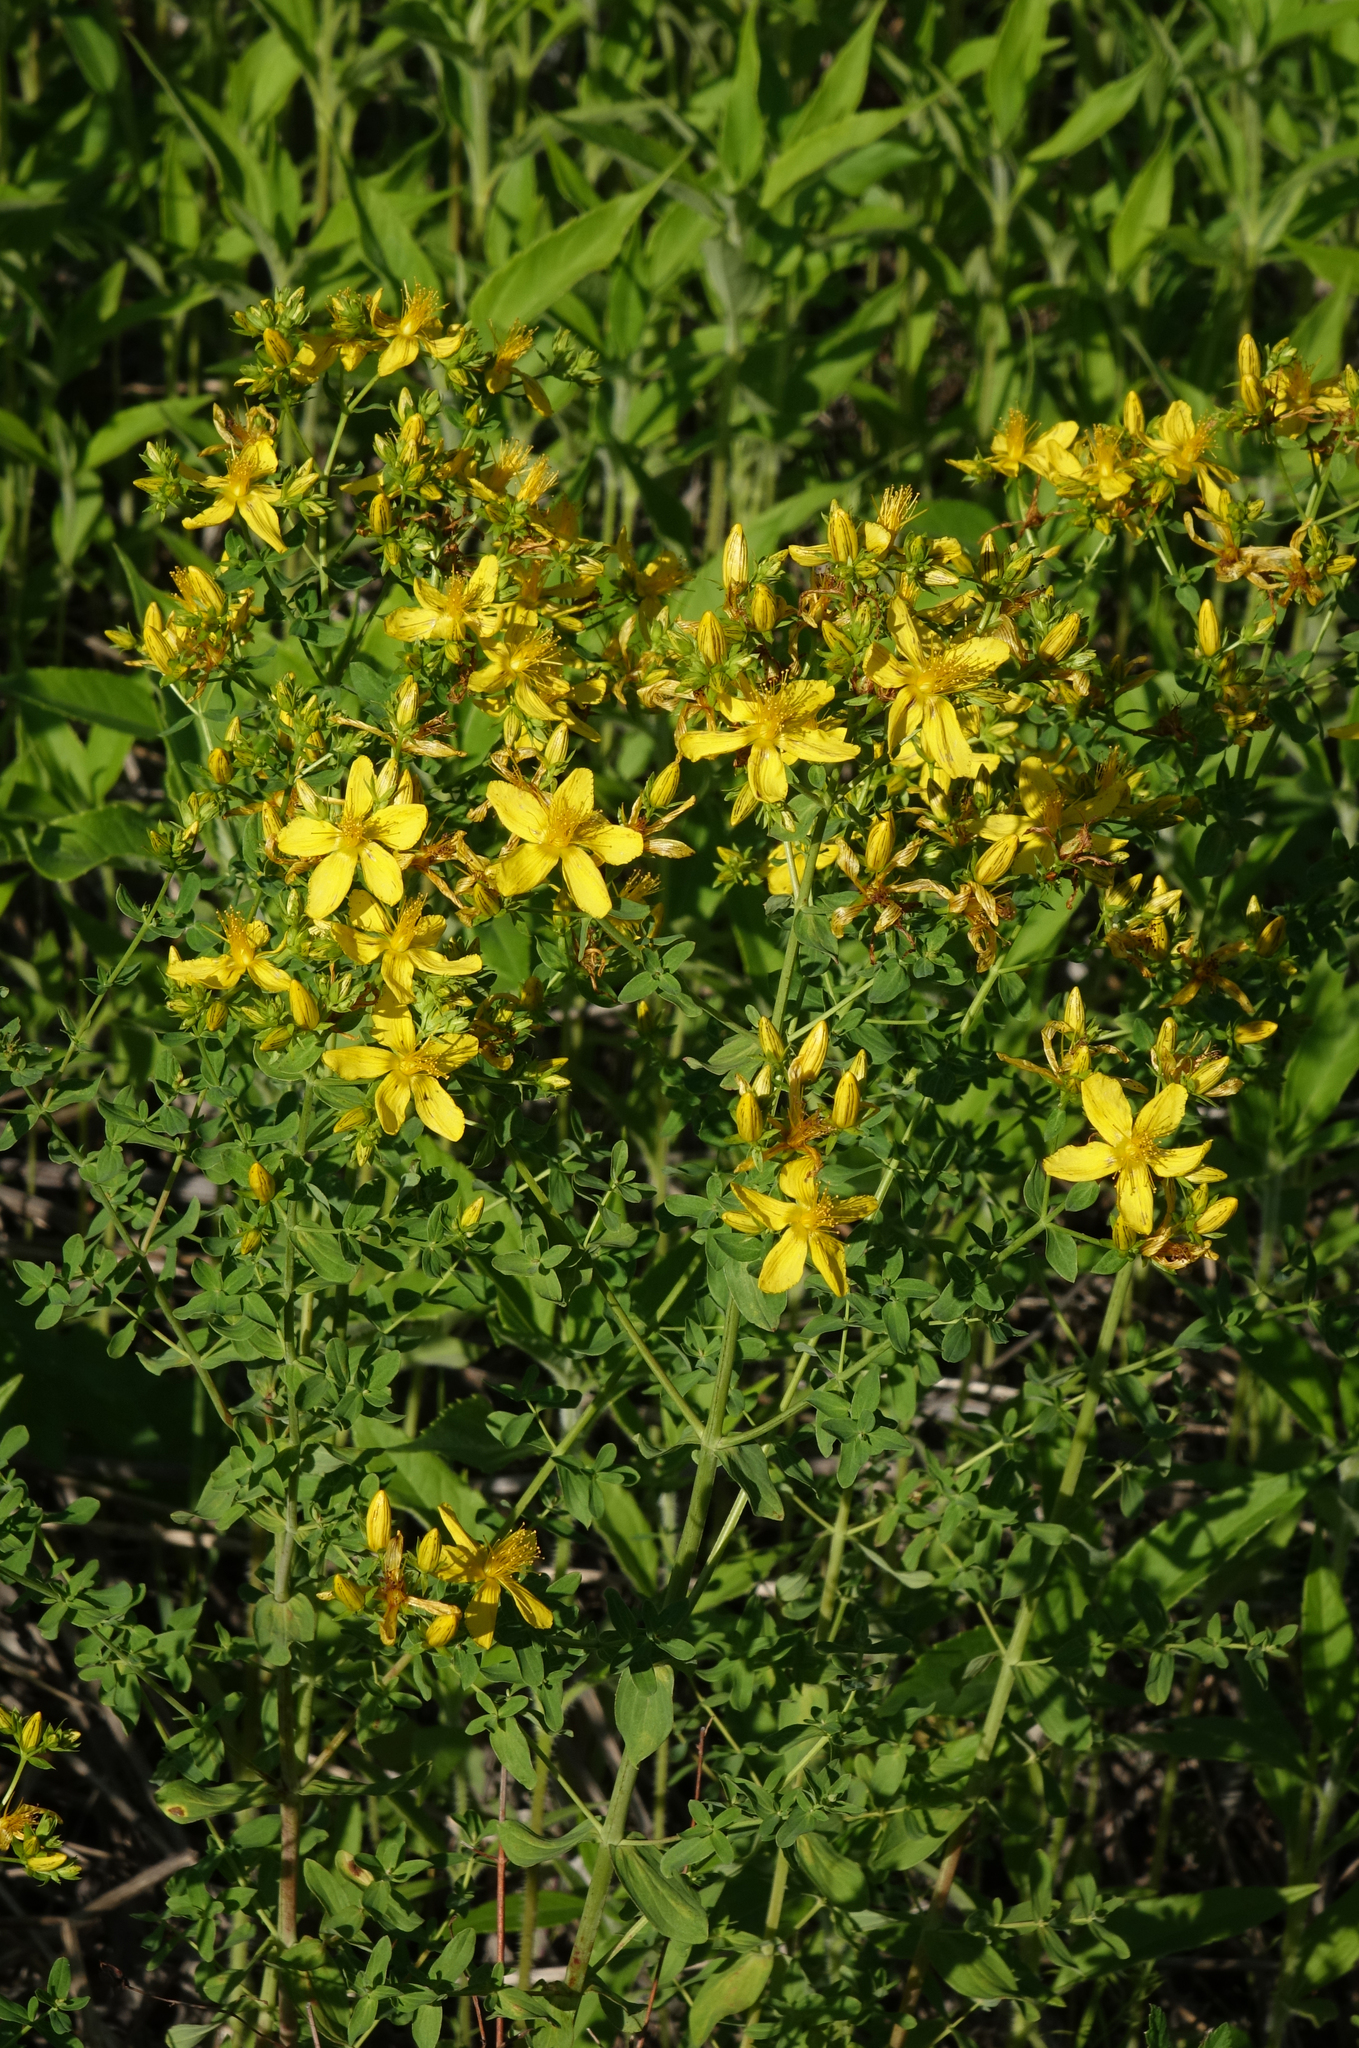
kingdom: Plantae
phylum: Tracheophyta
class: Magnoliopsida
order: Malpighiales
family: Hypericaceae
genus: Hypericum
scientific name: Hypericum perforatum
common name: Common st. johnswort
